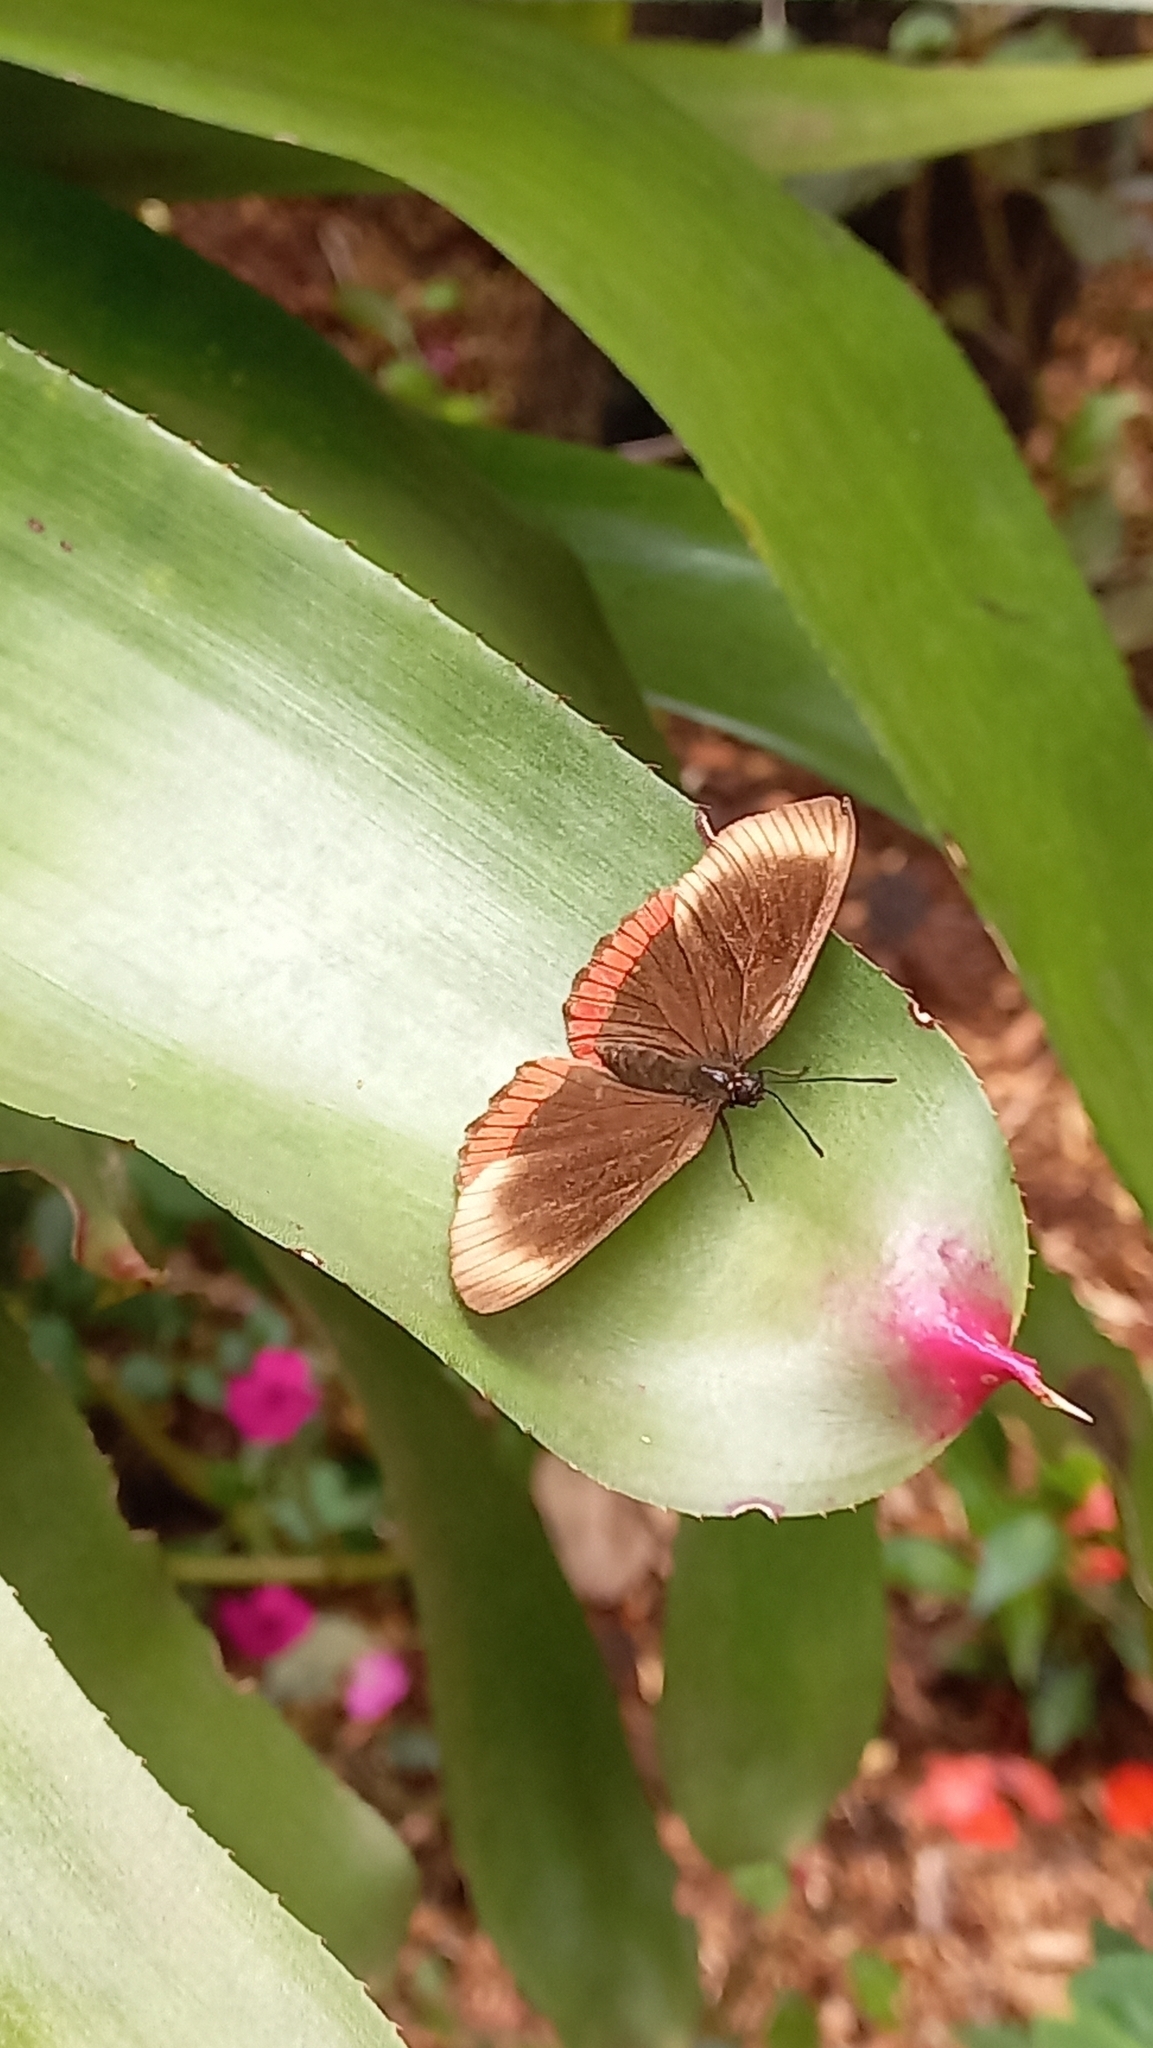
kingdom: Animalia
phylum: Arthropoda
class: Insecta
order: Lepidoptera
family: Sesiidae
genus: Sesia
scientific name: Sesia Biblis hyperia
